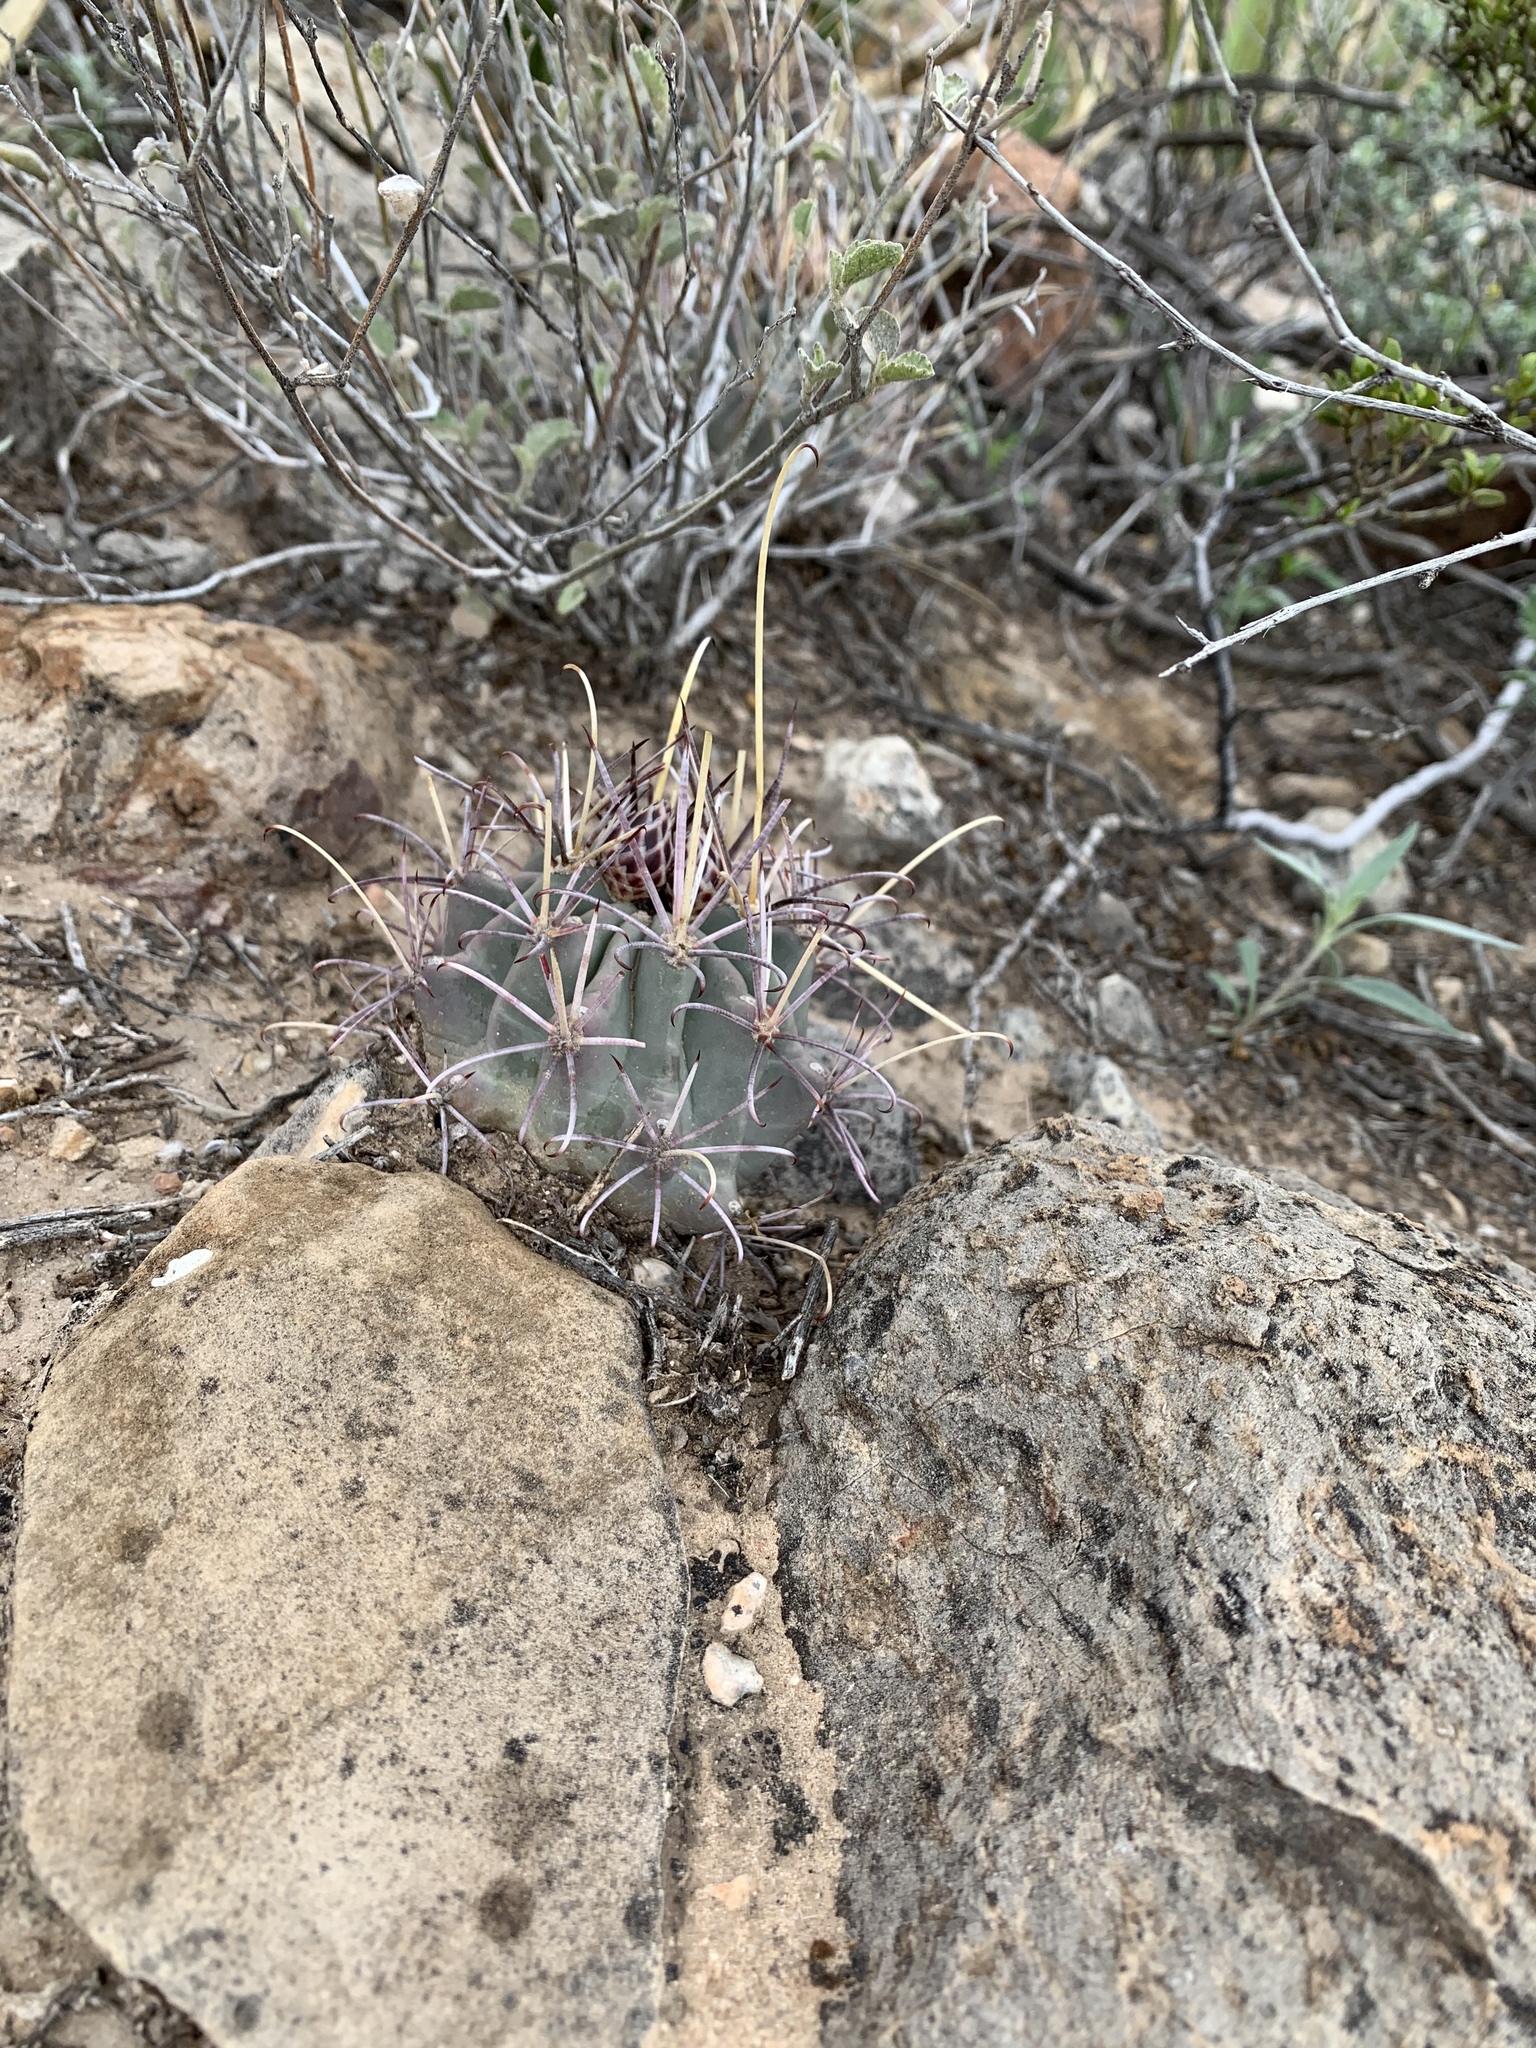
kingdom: Plantae
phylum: Tracheophyta
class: Magnoliopsida
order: Caryophyllales
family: Cactaceae
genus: Ferocactus
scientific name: Ferocactus uncinatus
